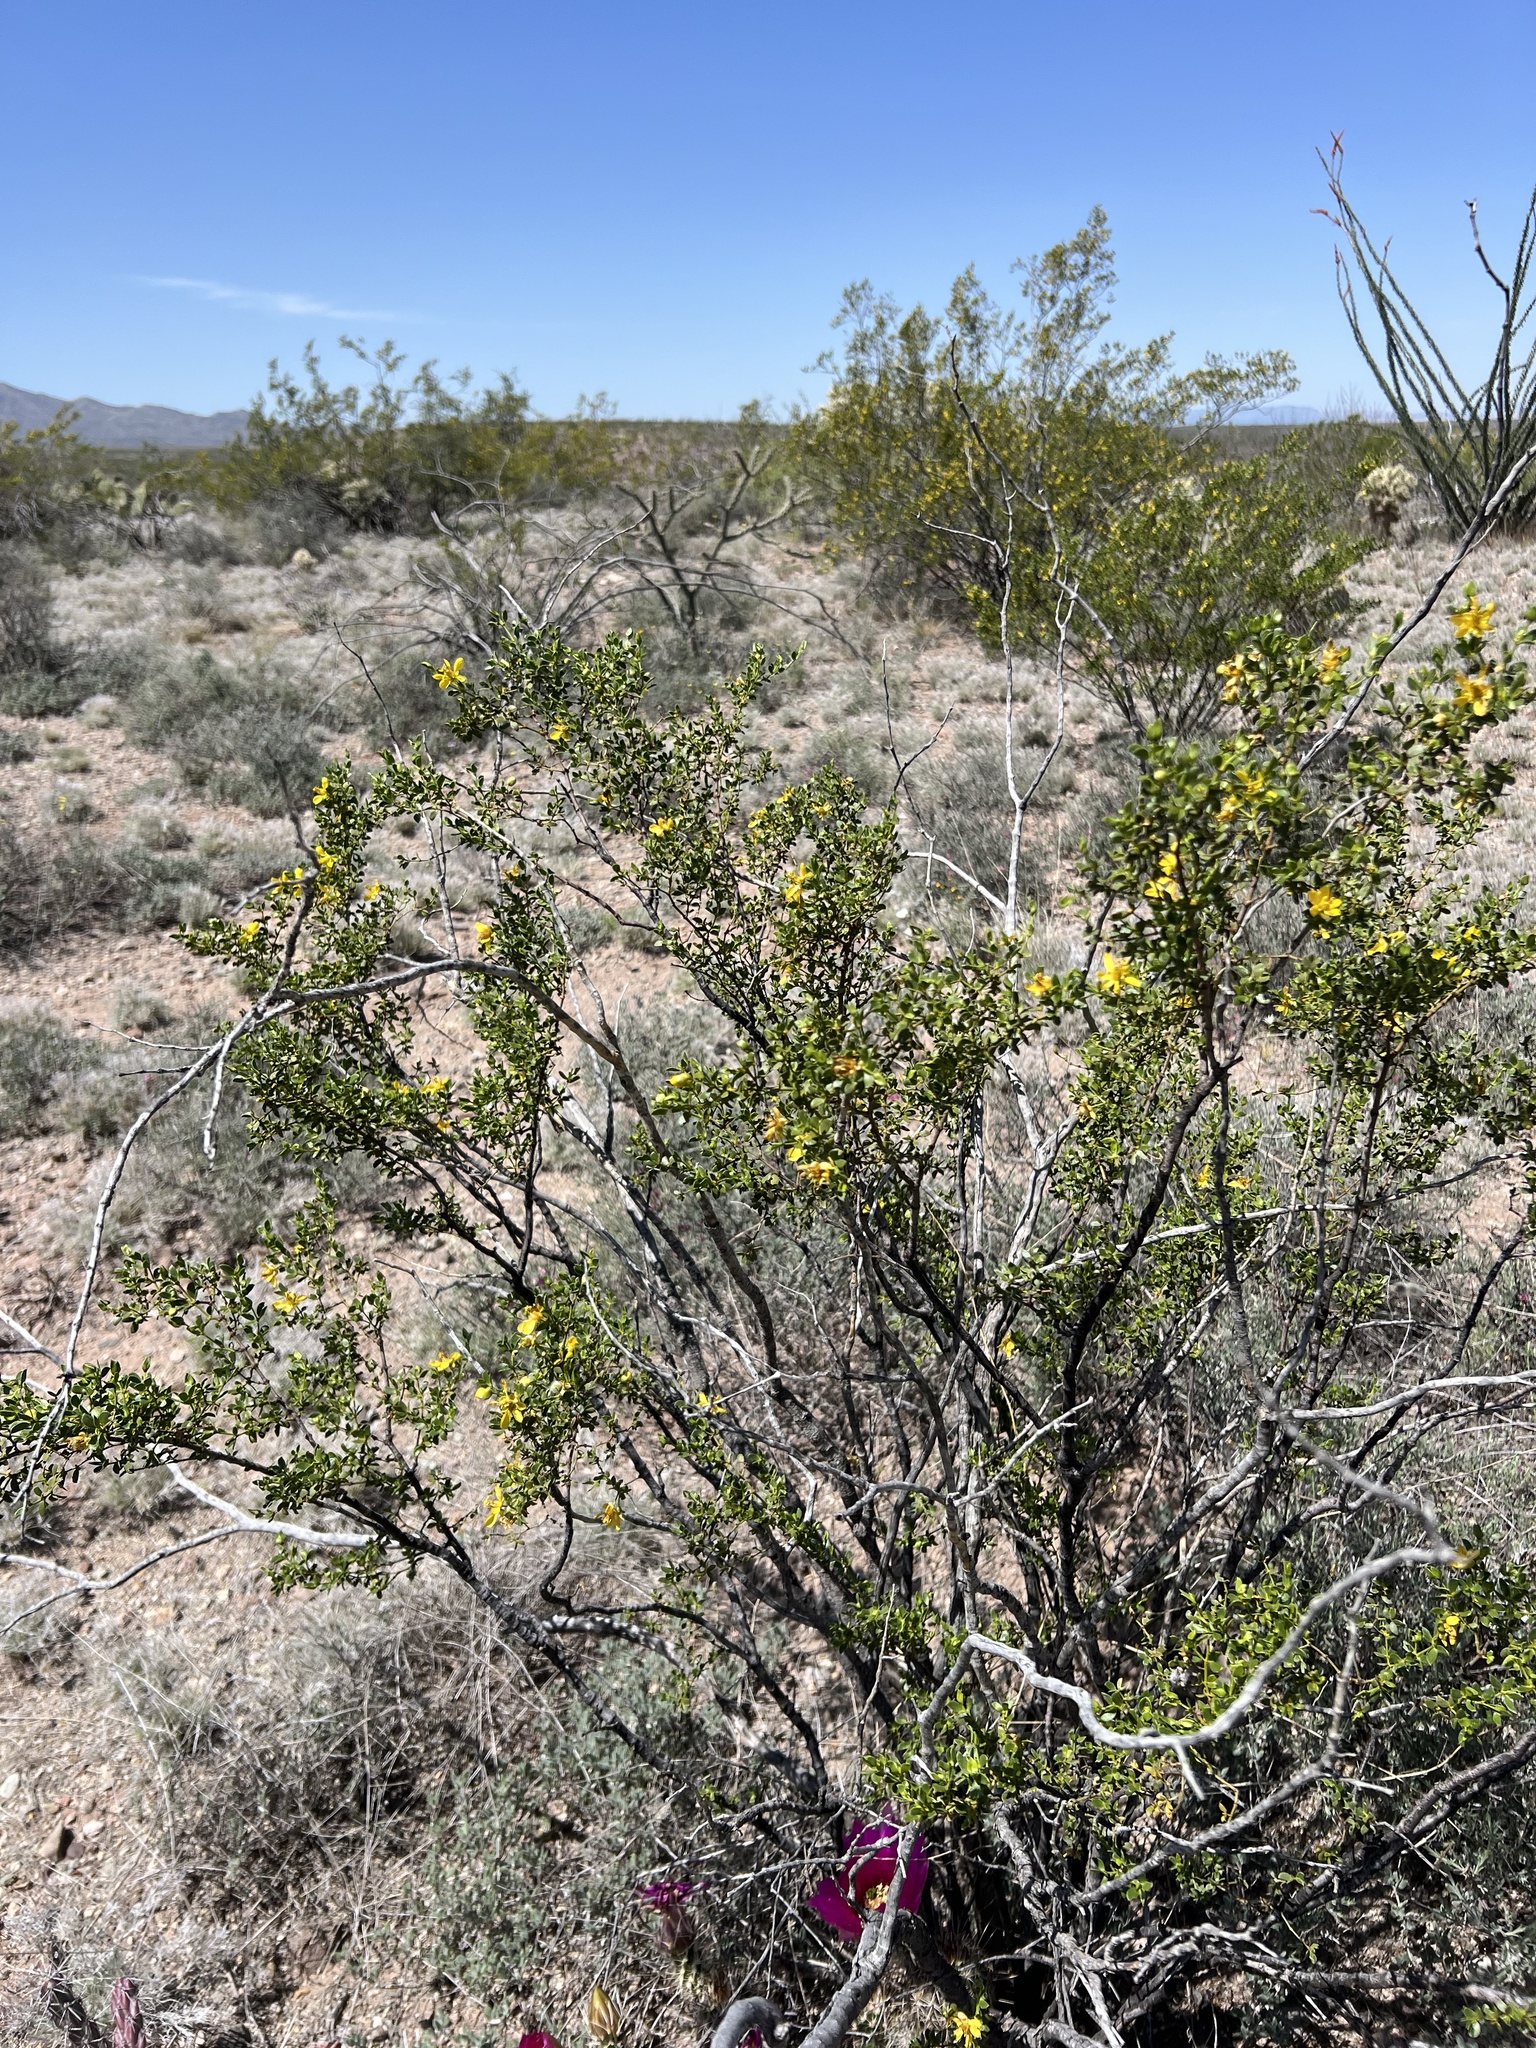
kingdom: Plantae
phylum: Tracheophyta
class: Magnoliopsida
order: Zygophyllales
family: Zygophyllaceae
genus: Larrea
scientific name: Larrea tridentata
